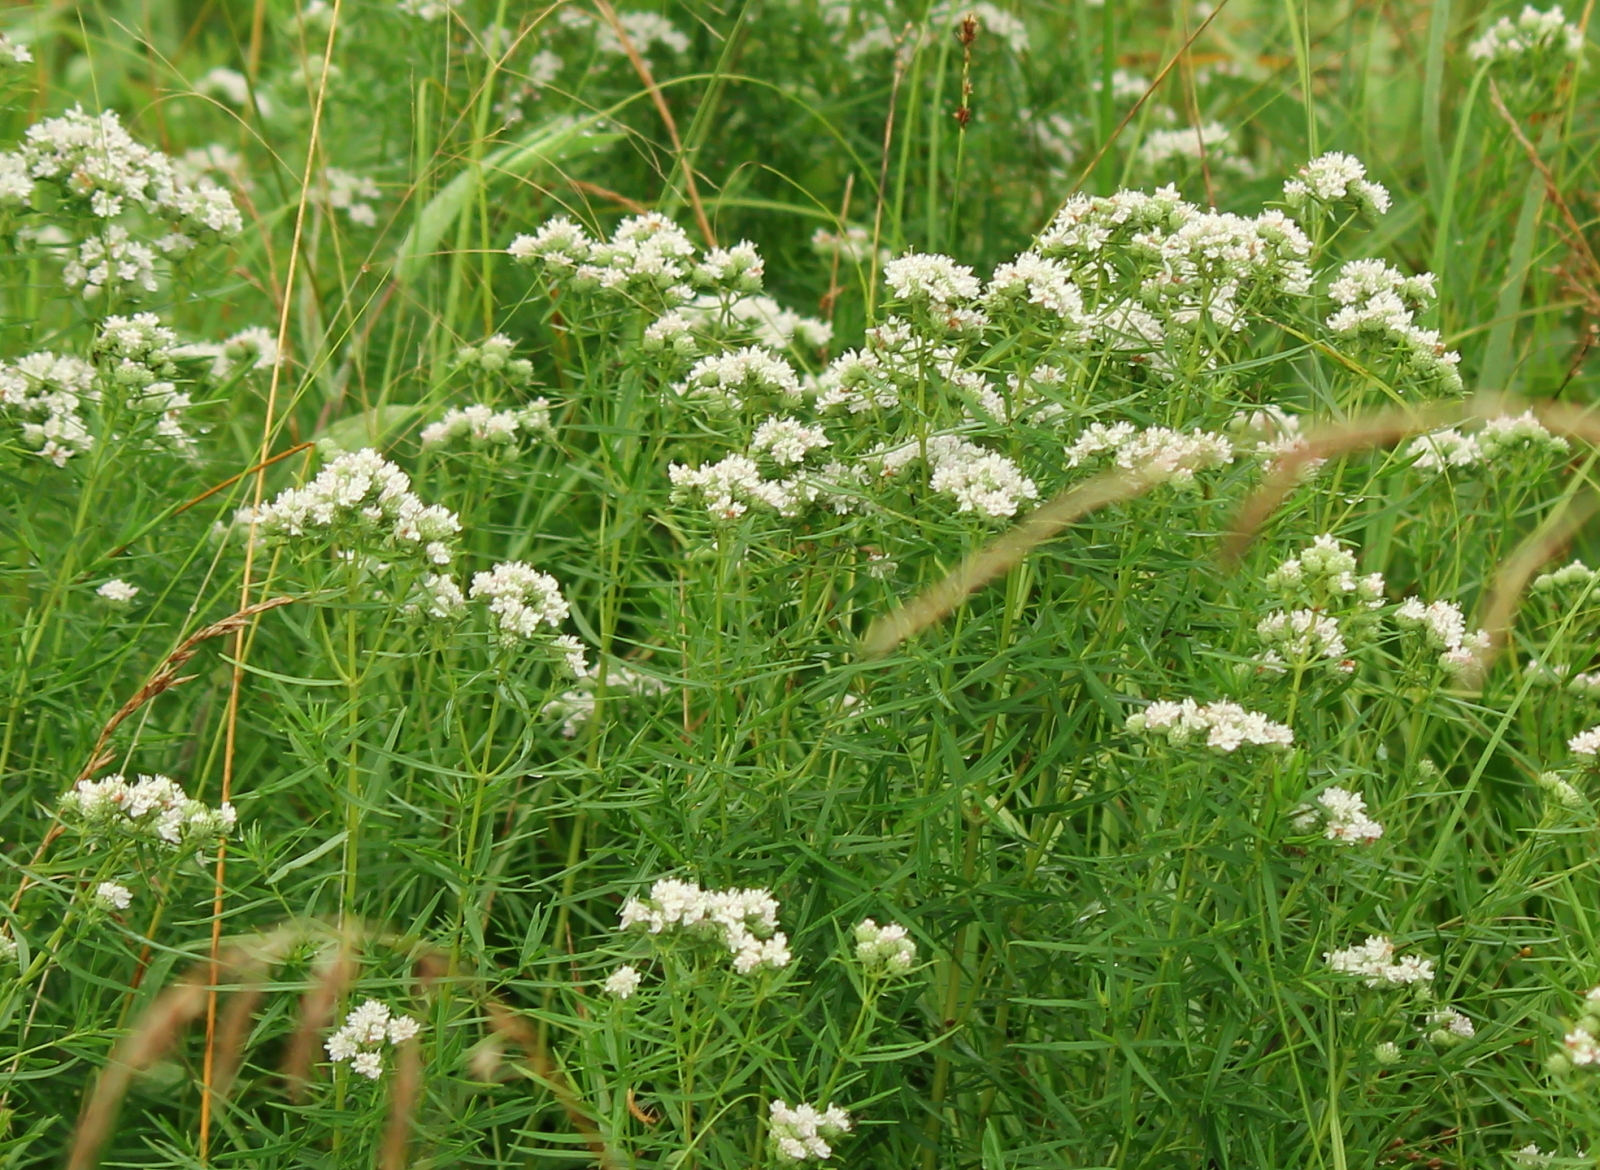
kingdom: Plantae
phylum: Tracheophyta
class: Magnoliopsida
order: Lamiales
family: Lamiaceae
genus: Pycnanthemum
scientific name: Pycnanthemum tenuifolium
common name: Narrow-leaf mountain-mint
